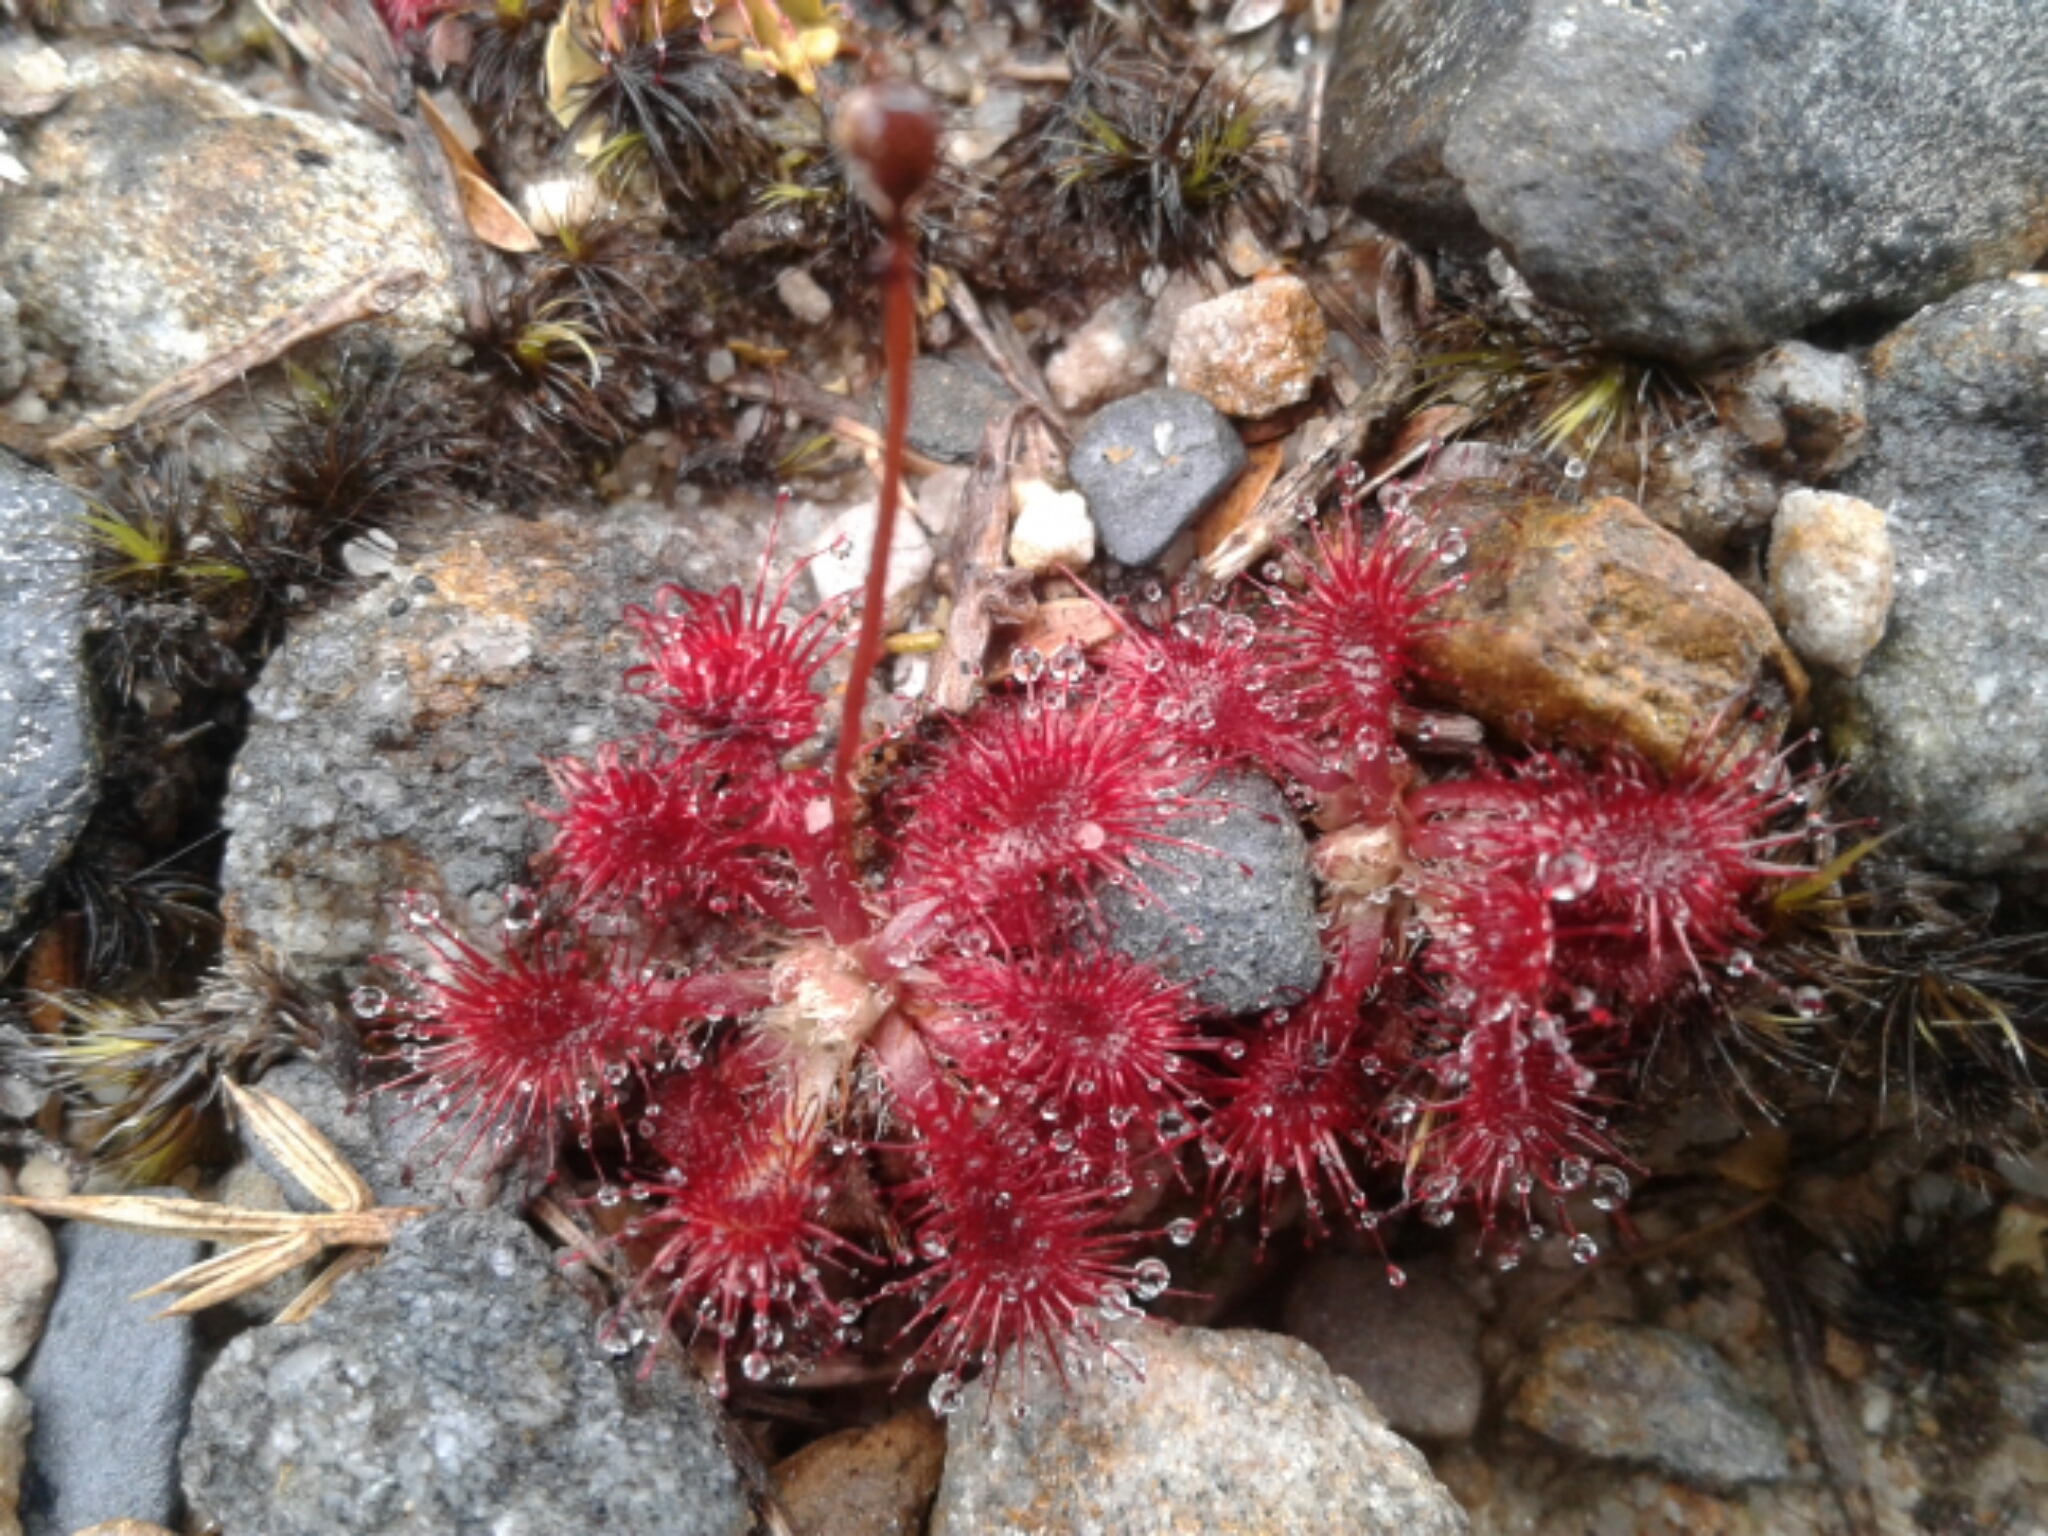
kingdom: Plantae
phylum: Tracheophyta
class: Magnoliopsida
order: Caryophyllales
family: Droseraceae
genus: Drosera
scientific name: Drosera spatulata
